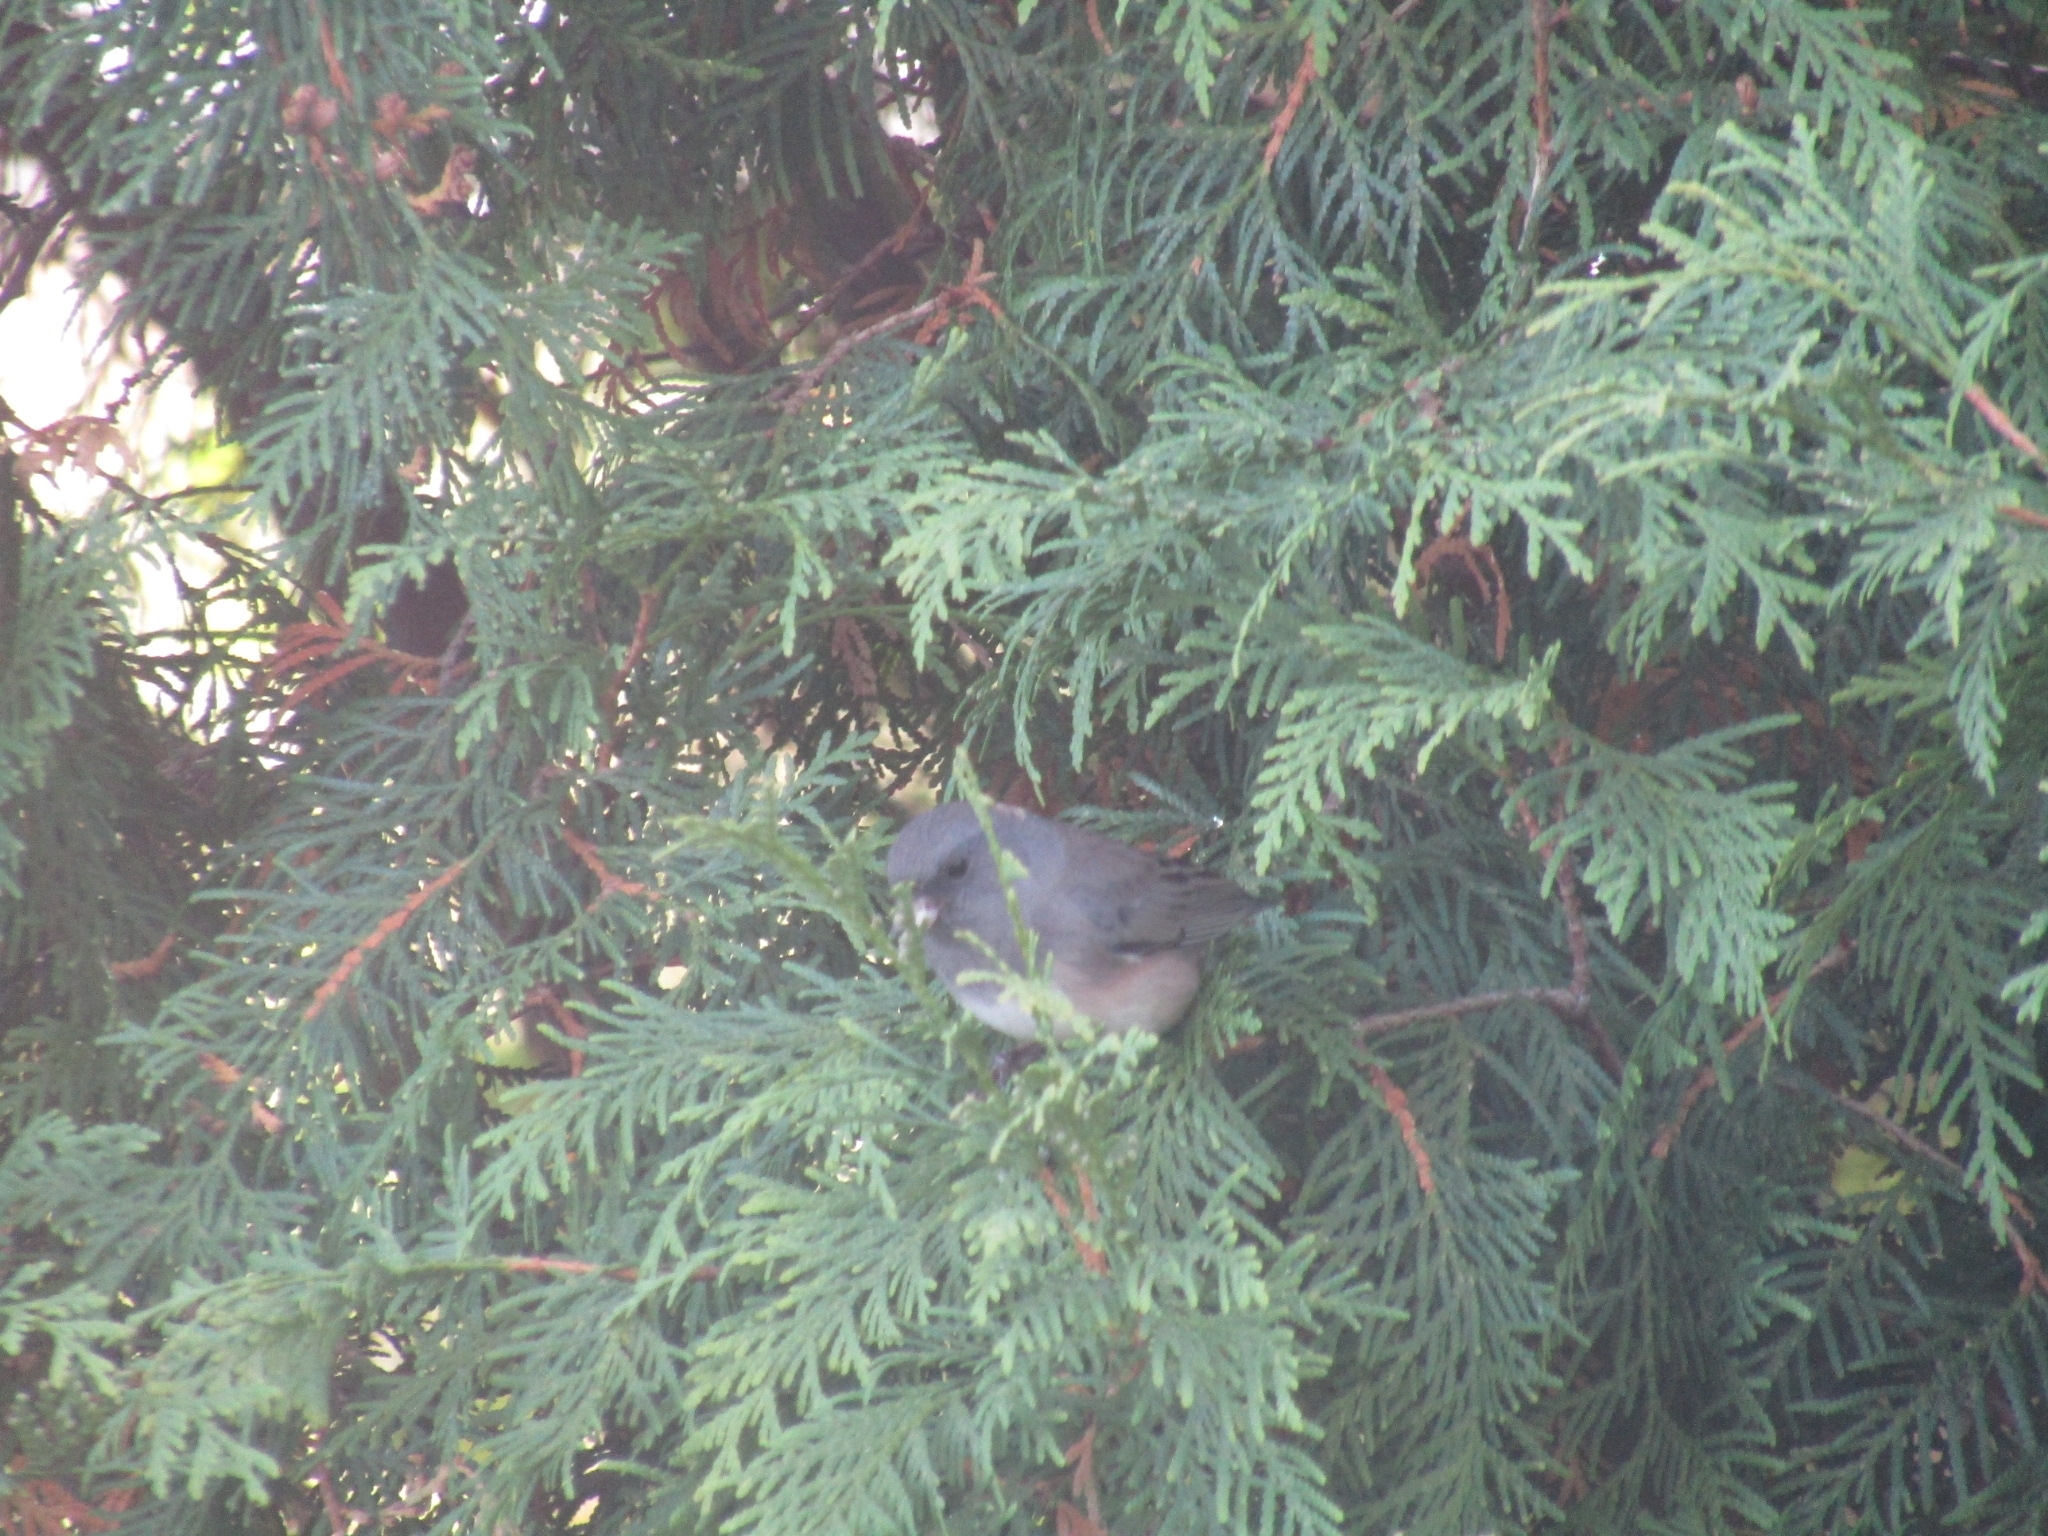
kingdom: Animalia
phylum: Chordata
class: Aves
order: Passeriformes
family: Passerellidae
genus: Junco
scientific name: Junco hyemalis
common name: Dark-eyed junco
